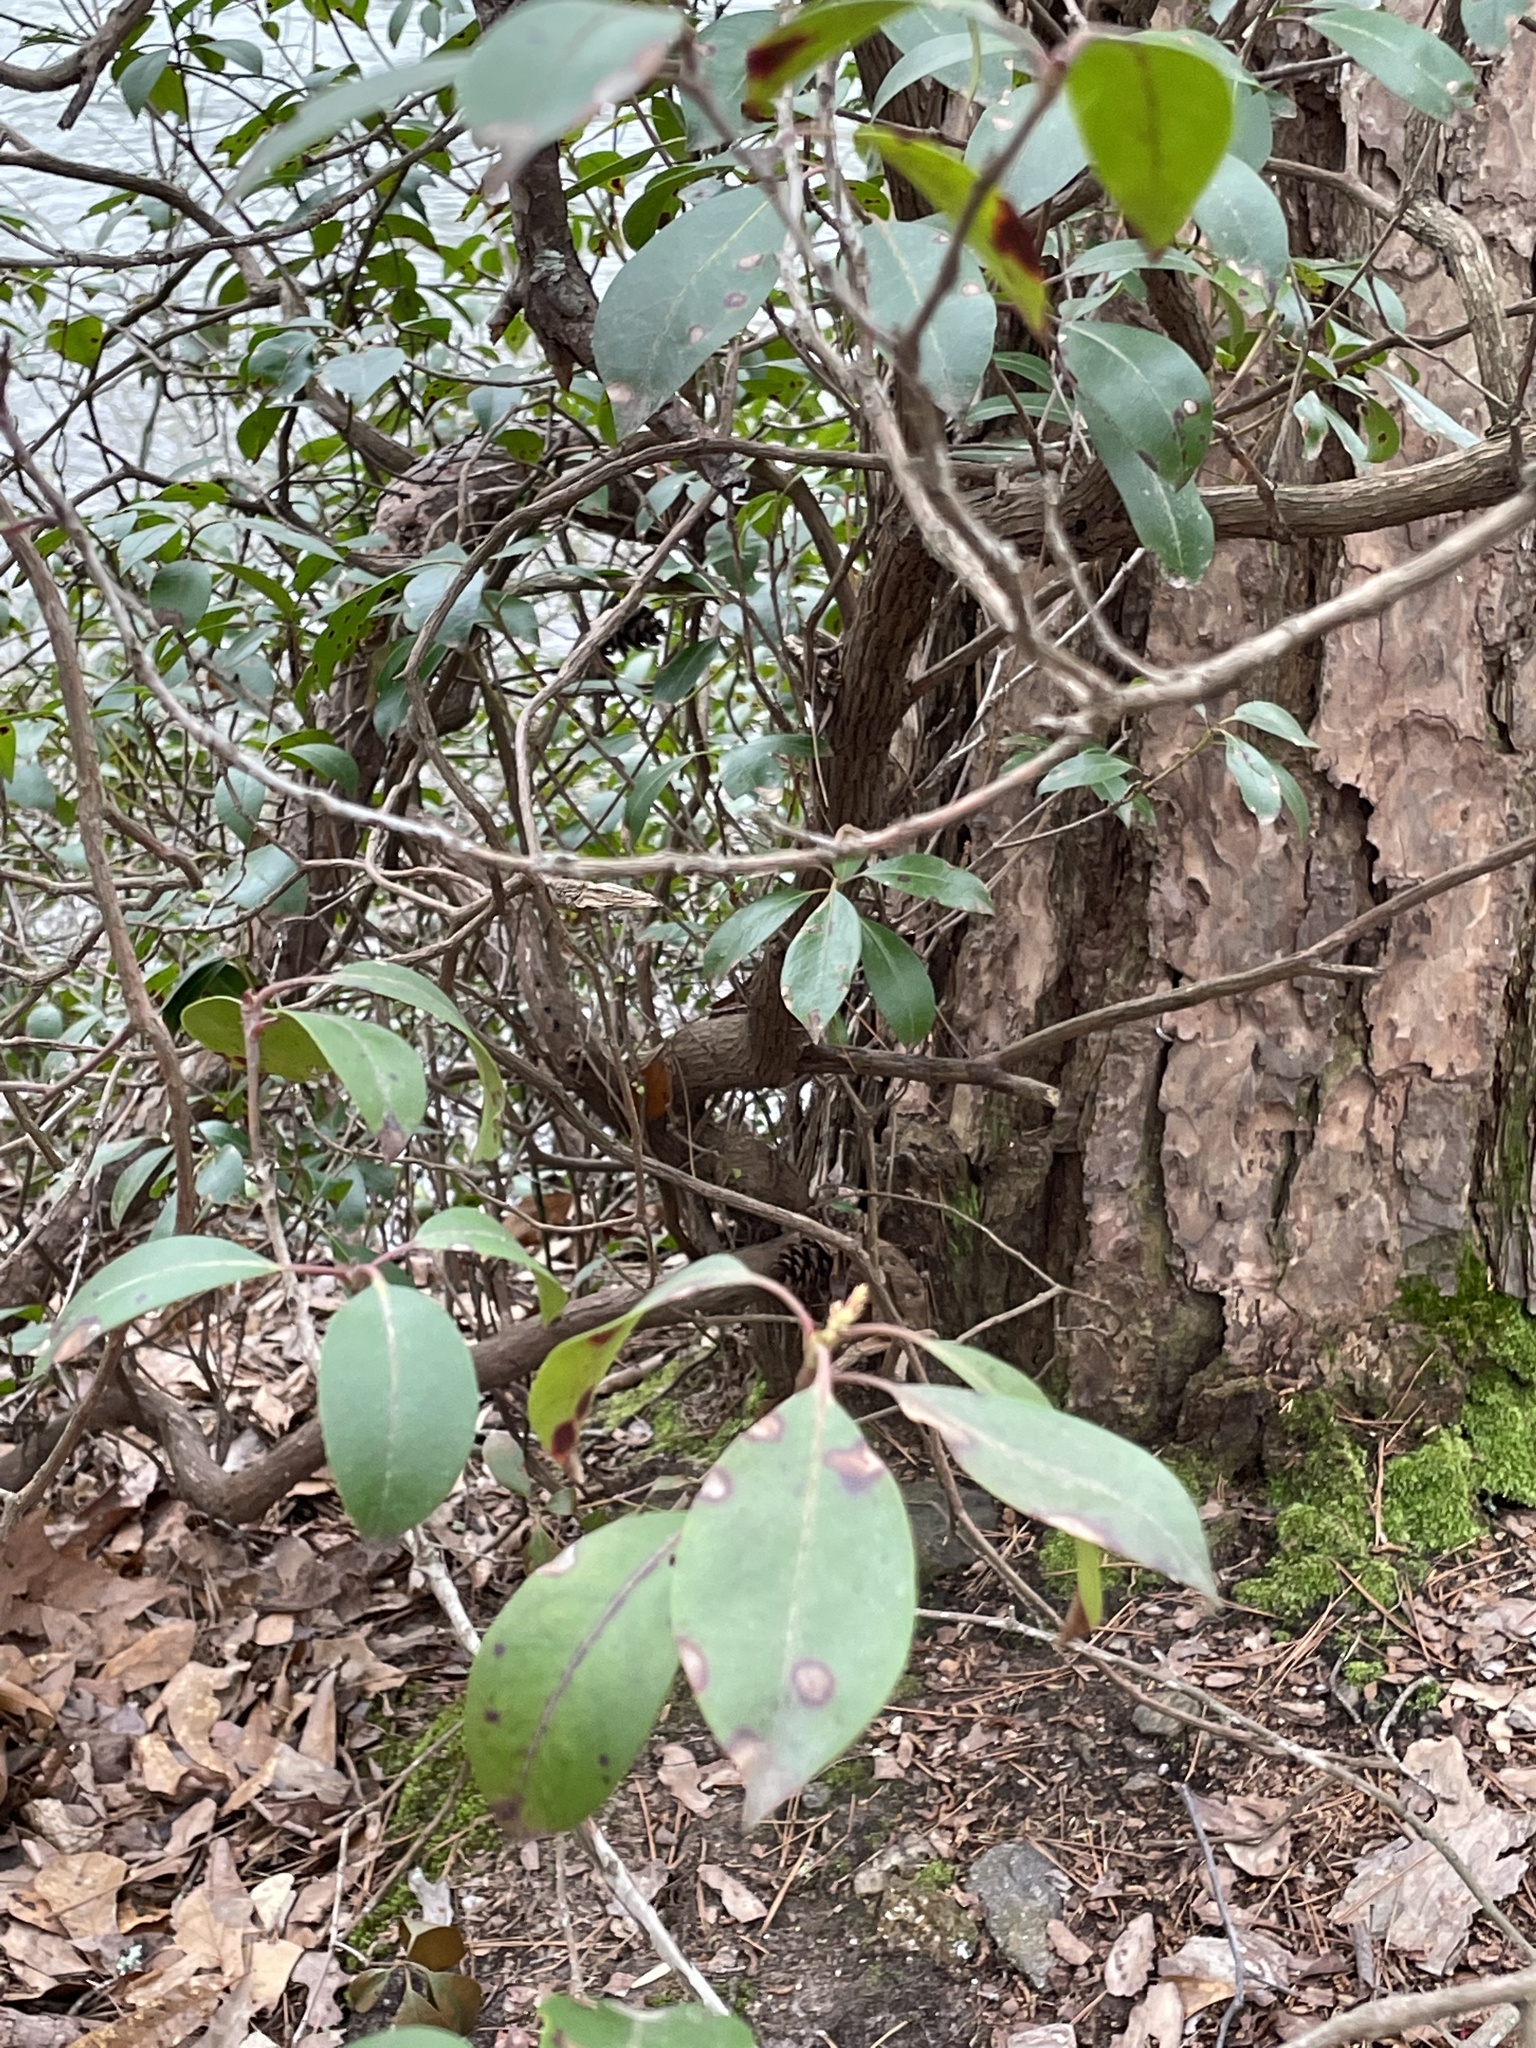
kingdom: Plantae
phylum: Tracheophyta
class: Magnoliopsida
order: Ericales
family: Ericaceae
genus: Kalmia
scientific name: Kalmia latifolia
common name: Mountain-laurel
